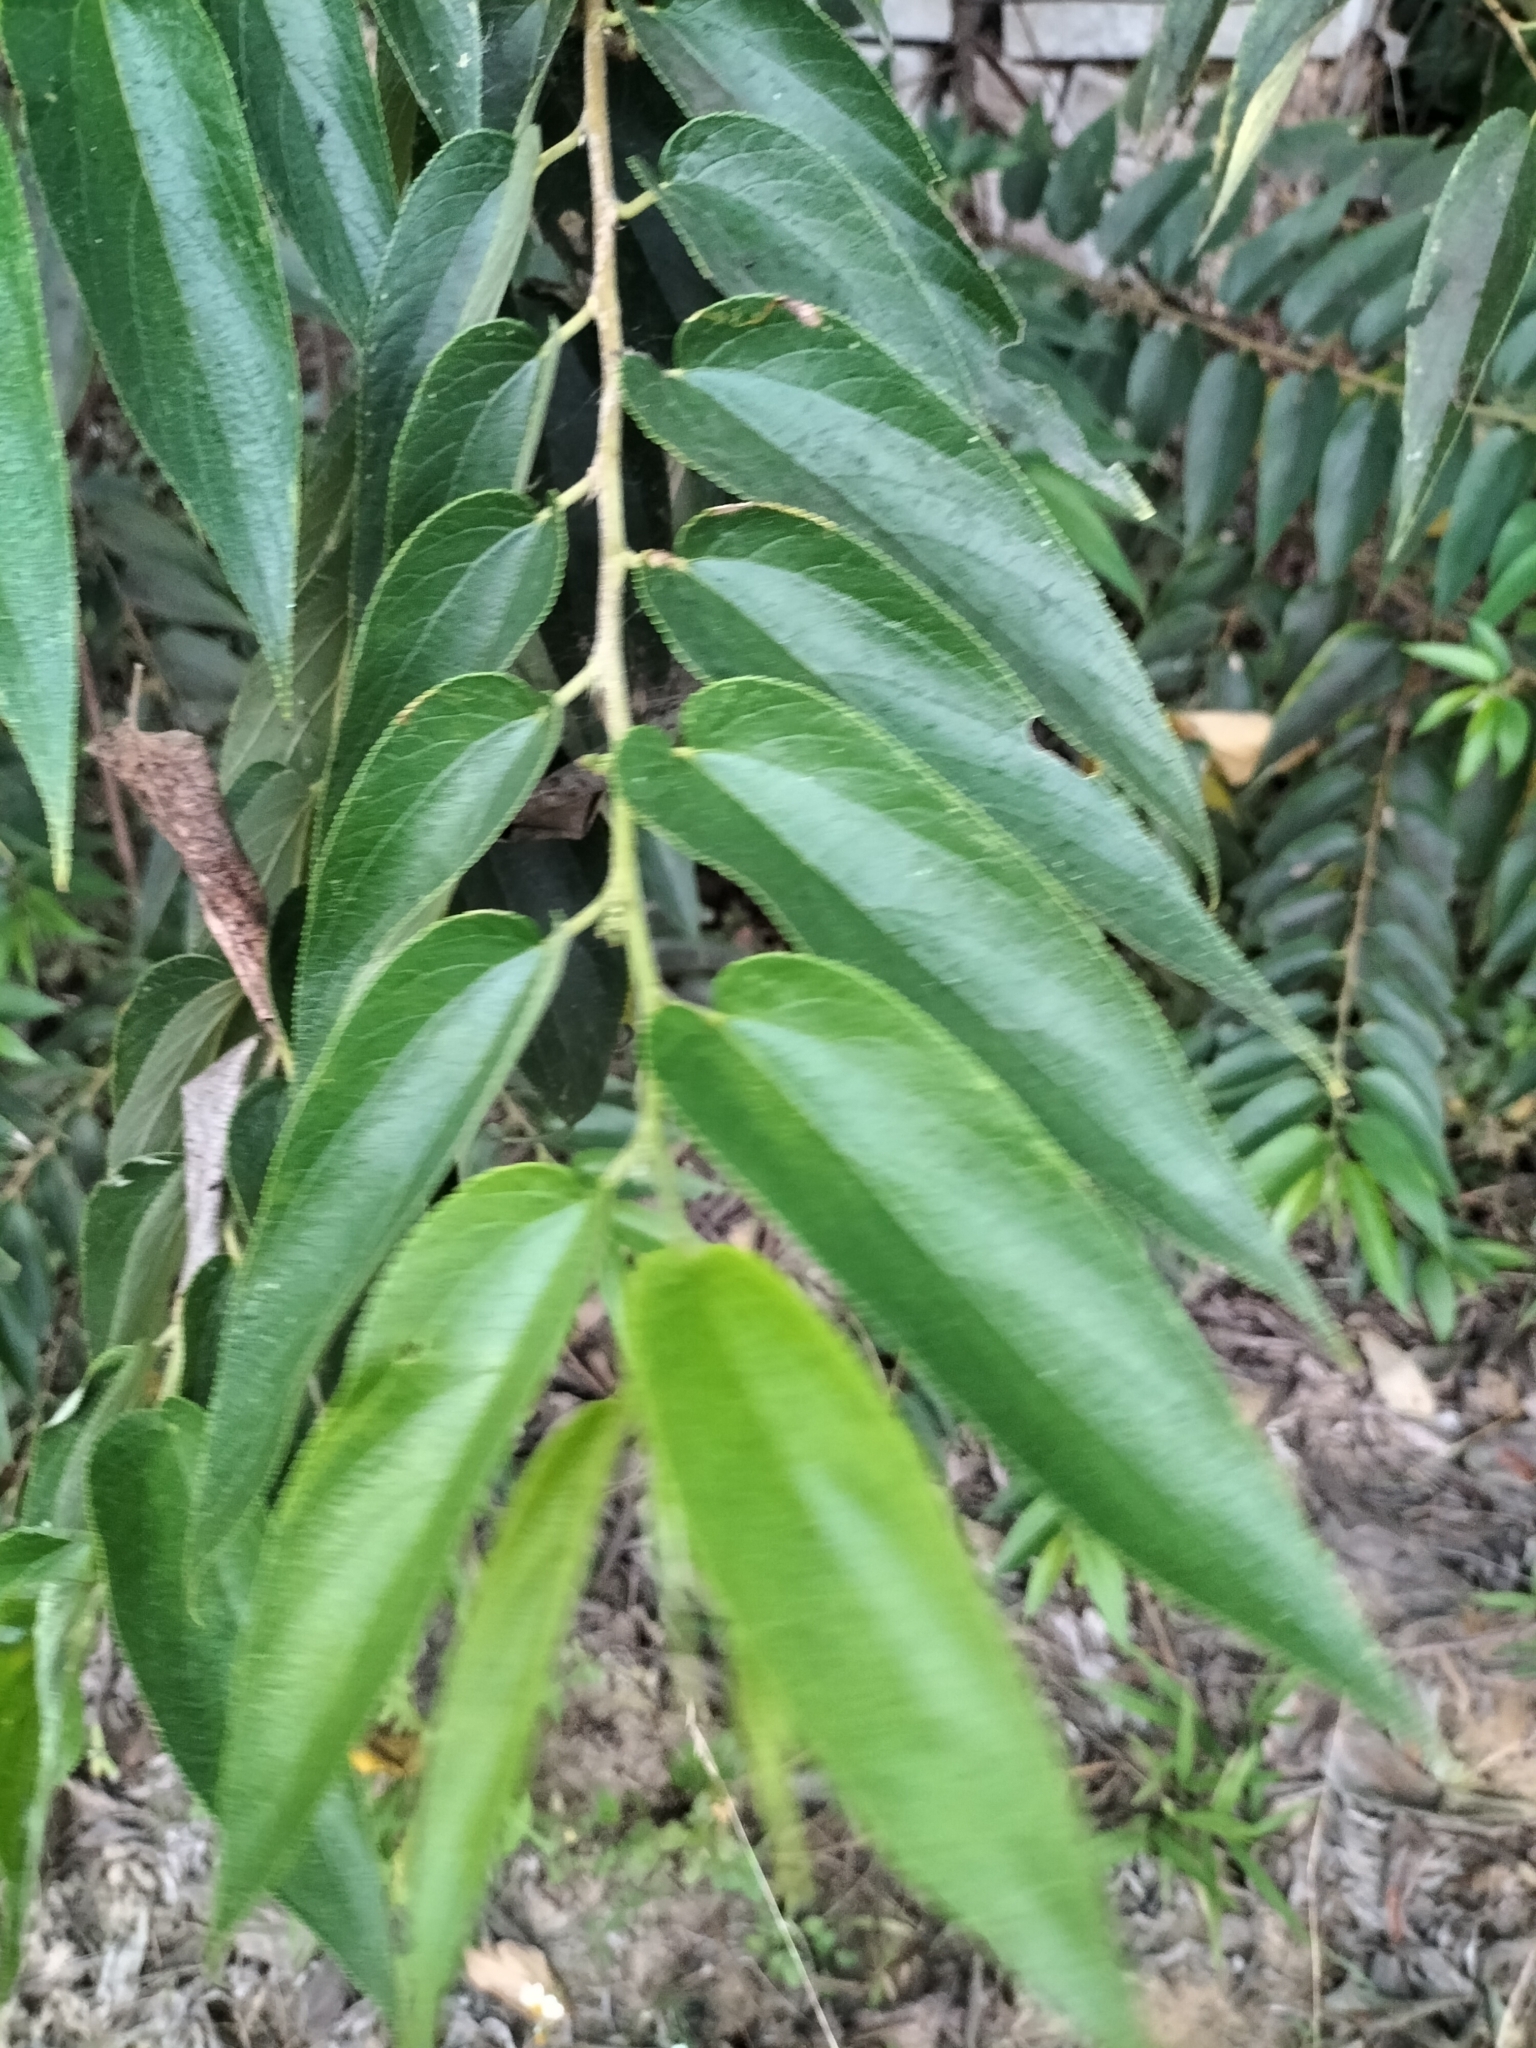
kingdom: Plantae
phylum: Tracheophyta
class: Magnoliopsida
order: Rosales
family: Cannabaceae
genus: Trema
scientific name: Trema orientale
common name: Indian charcoal tree
